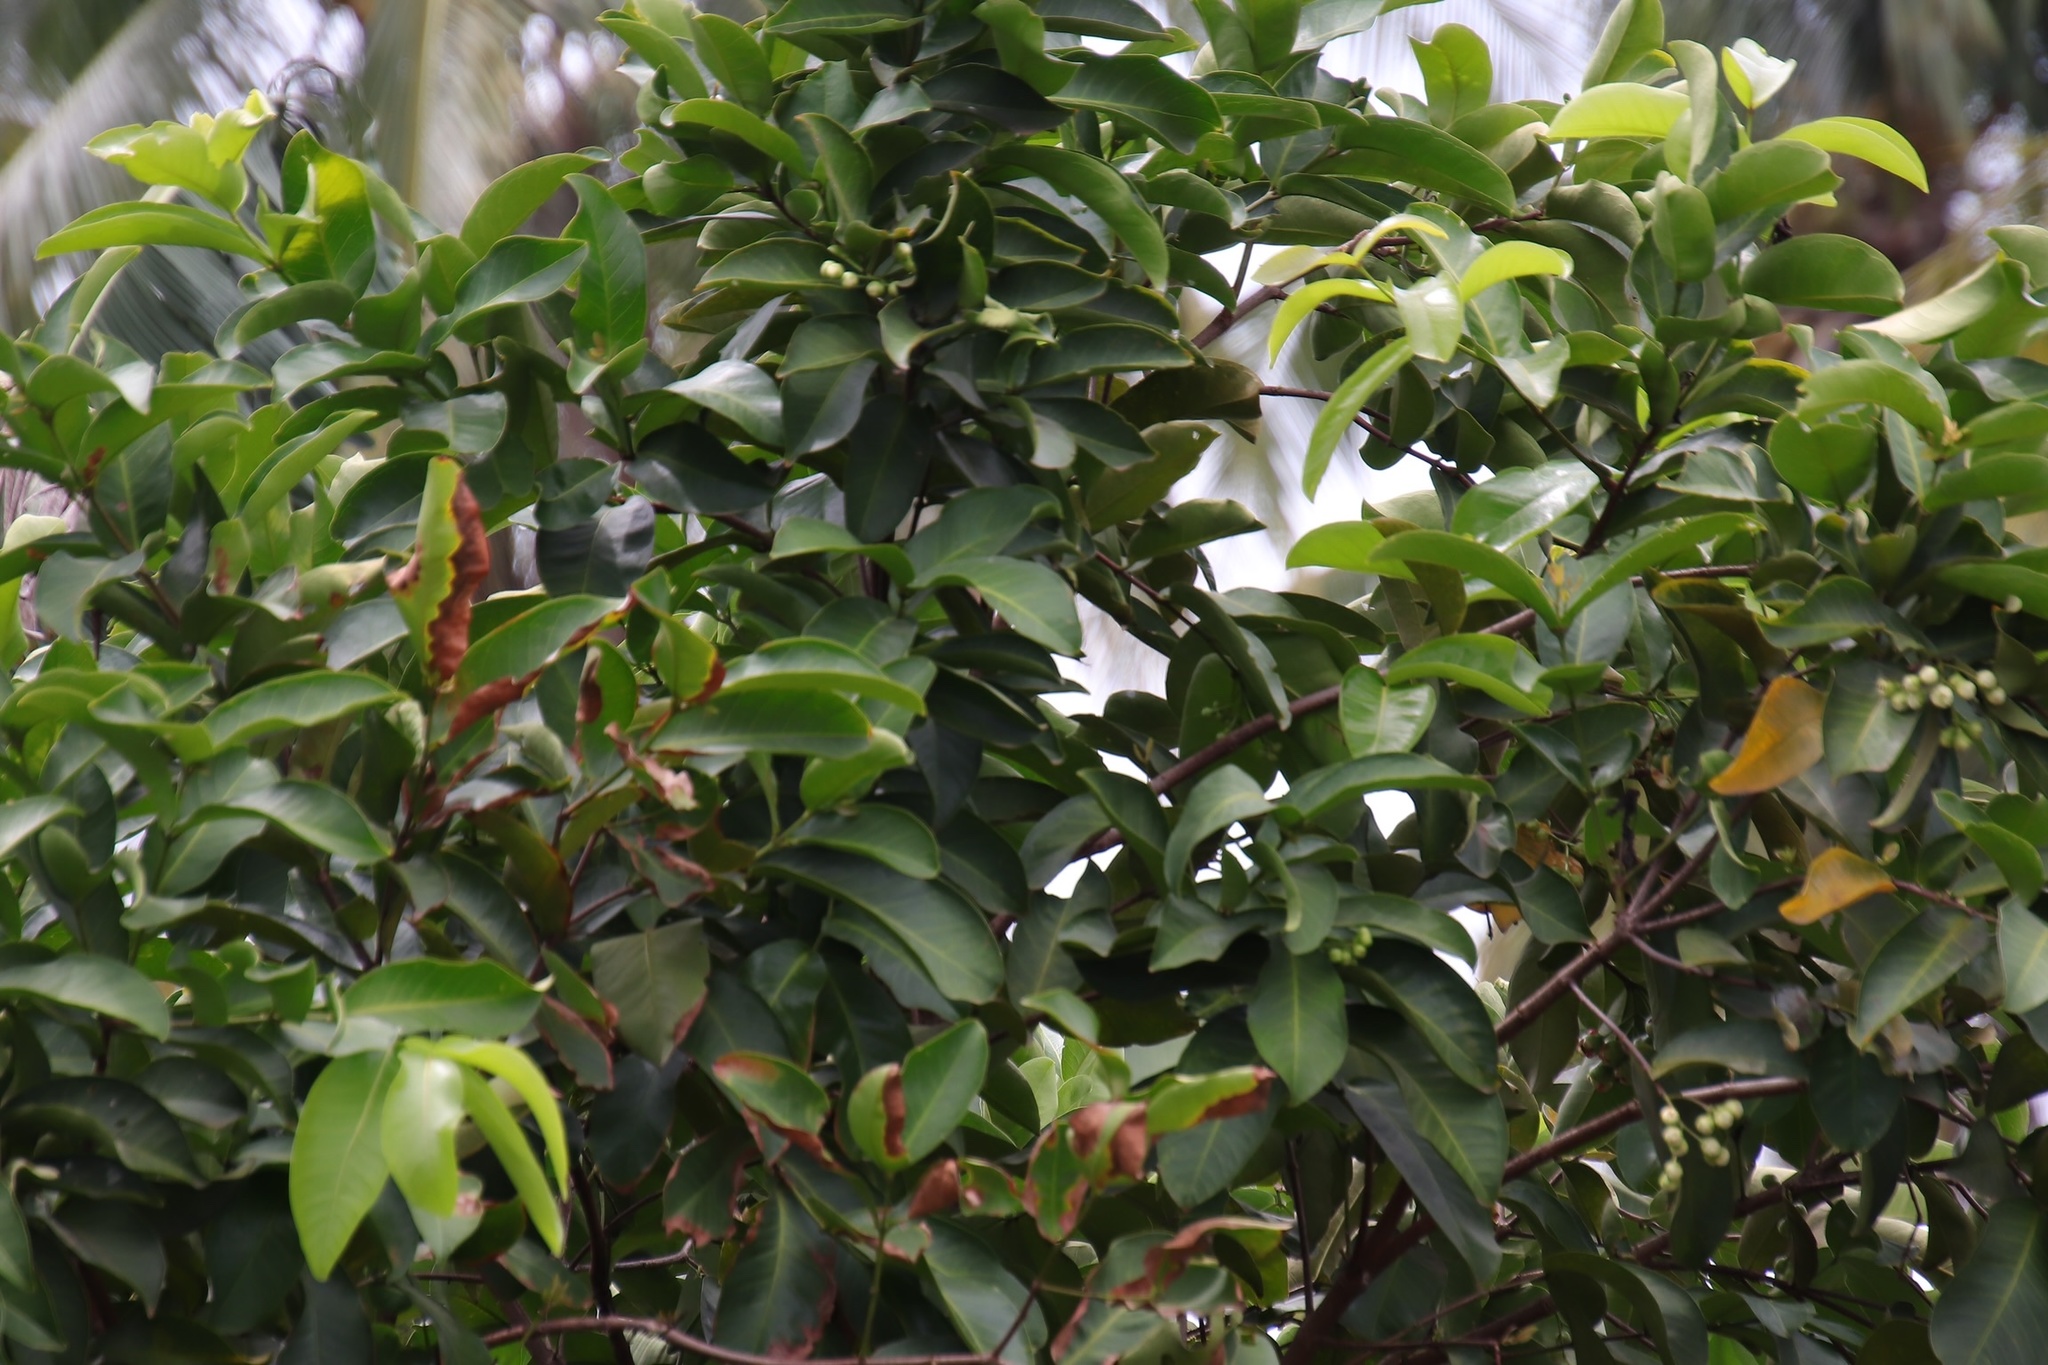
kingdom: Plantae
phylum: Tracheophyta
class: Magnoliopsida
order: Myrtales
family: Myrtaceae
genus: Syzygium
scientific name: Syzygium samarangense
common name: Semarang rose-apple
